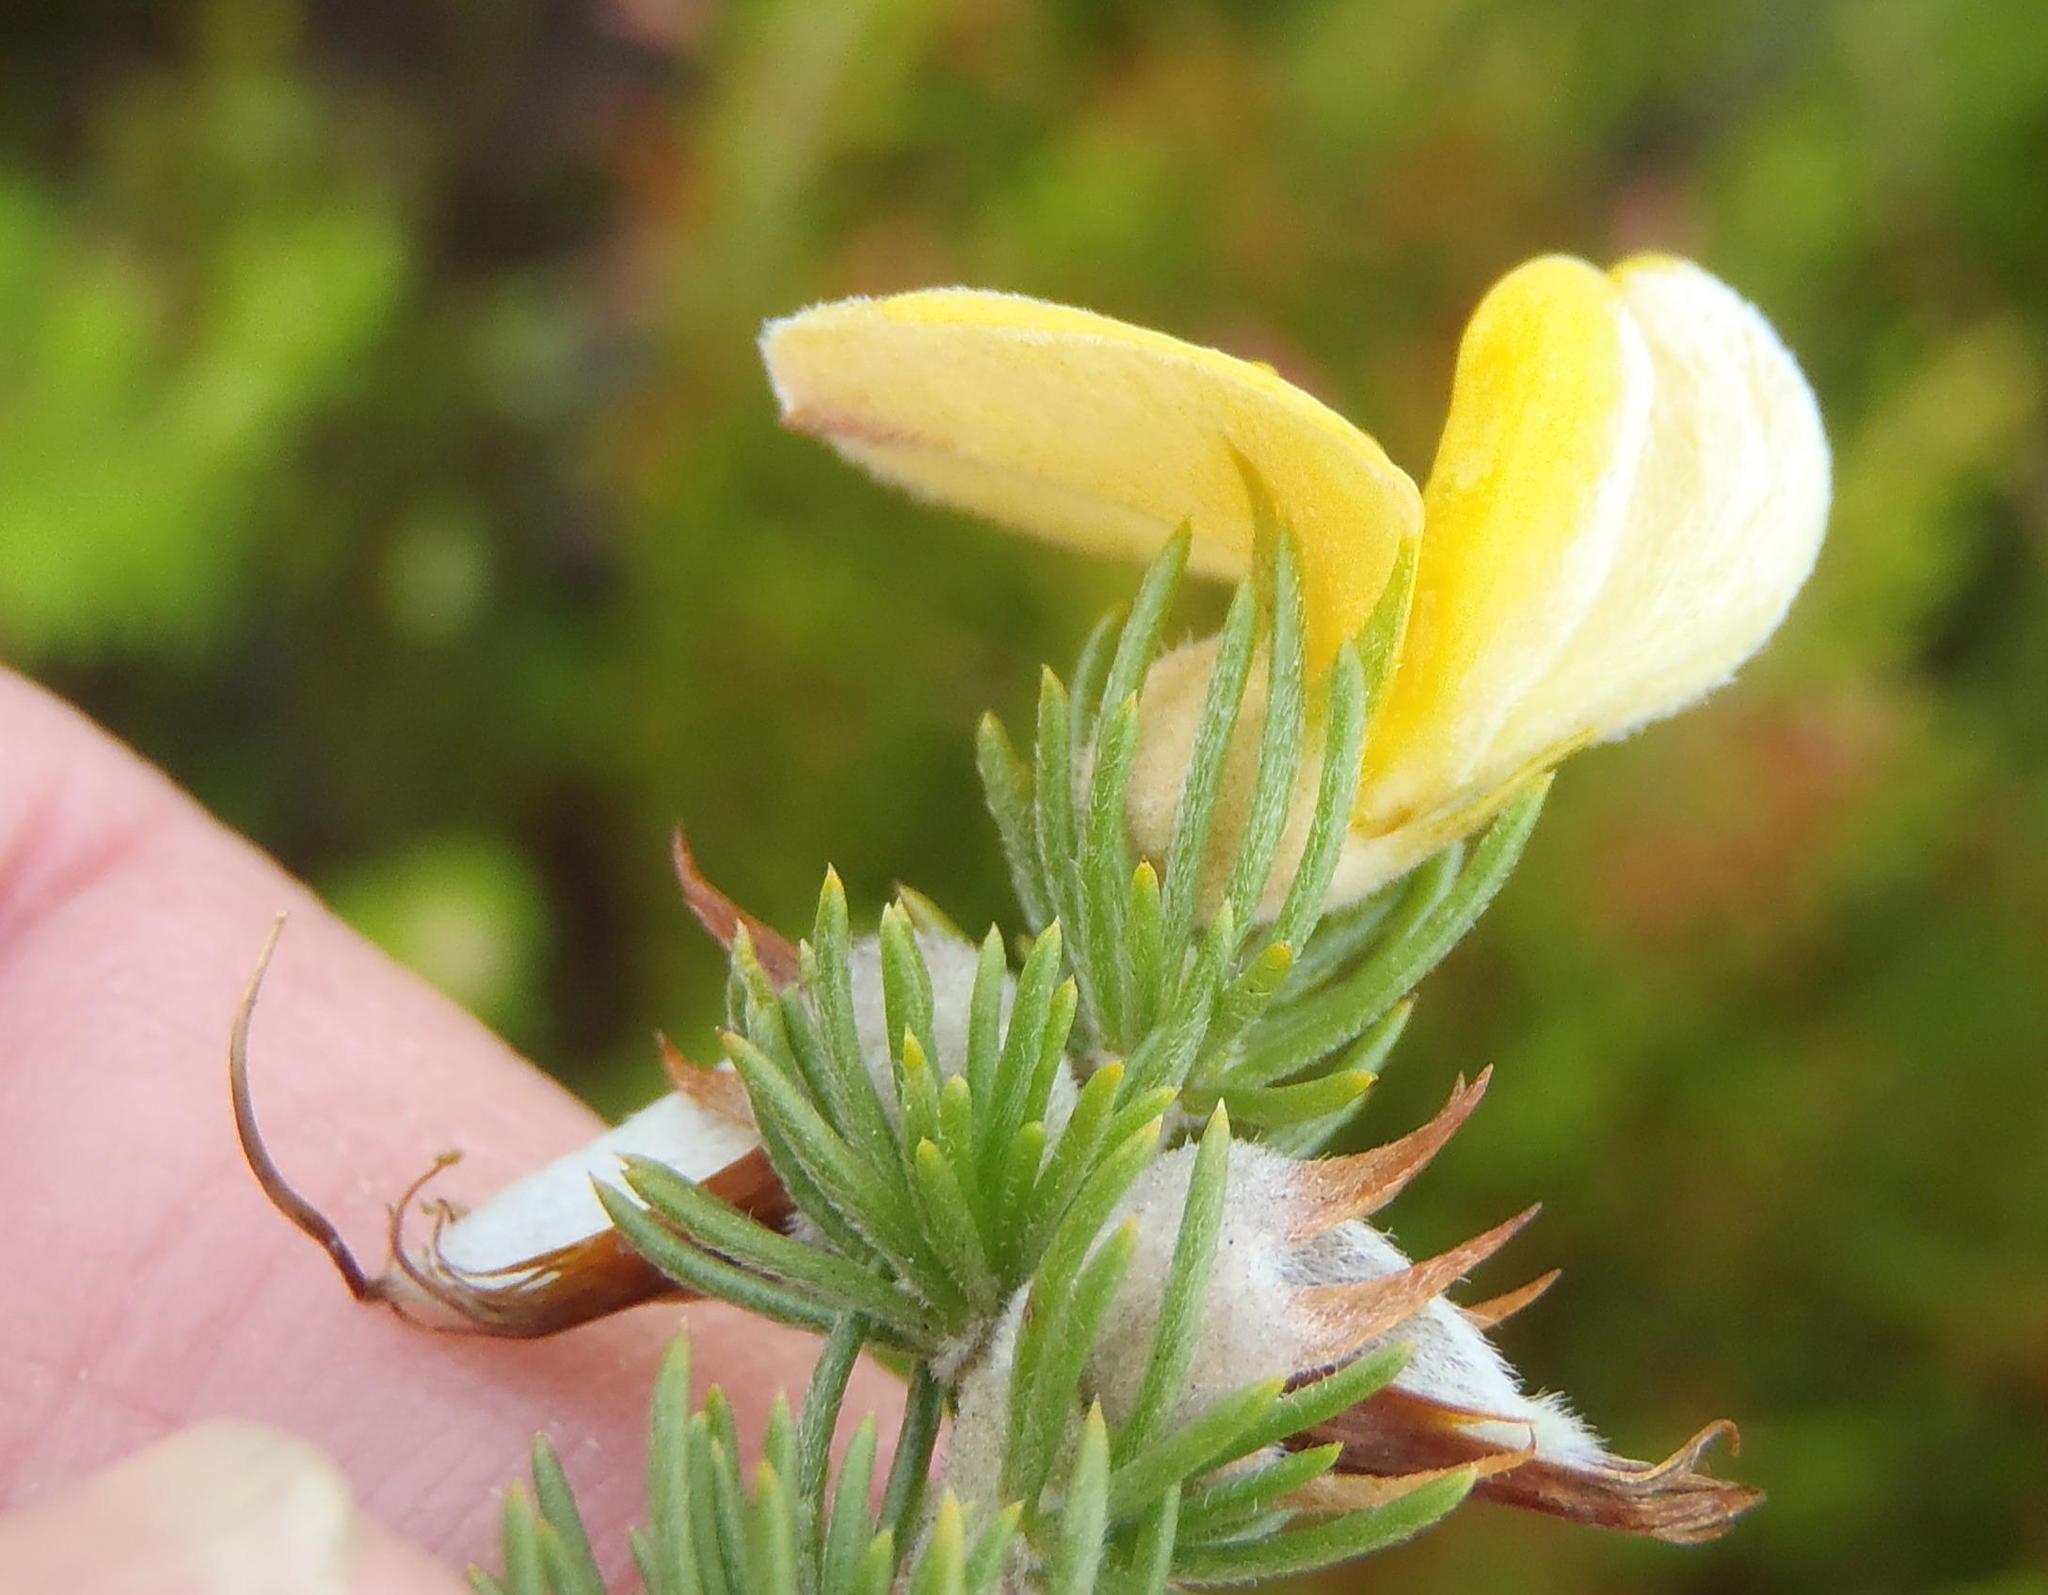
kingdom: Plantae
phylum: Tracheophyta
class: Magnoliopsida
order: Fabales
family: Fabaceae
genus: Aspalathus
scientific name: Aspalathus kougaensis
